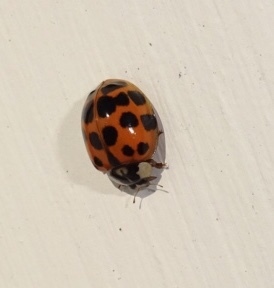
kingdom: Animalia
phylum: Arthropoda
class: Insecta
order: Coleoptera
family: Coccinellidae
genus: Harmonia
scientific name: Harmonia axyridis
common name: Harlequin ladybird
